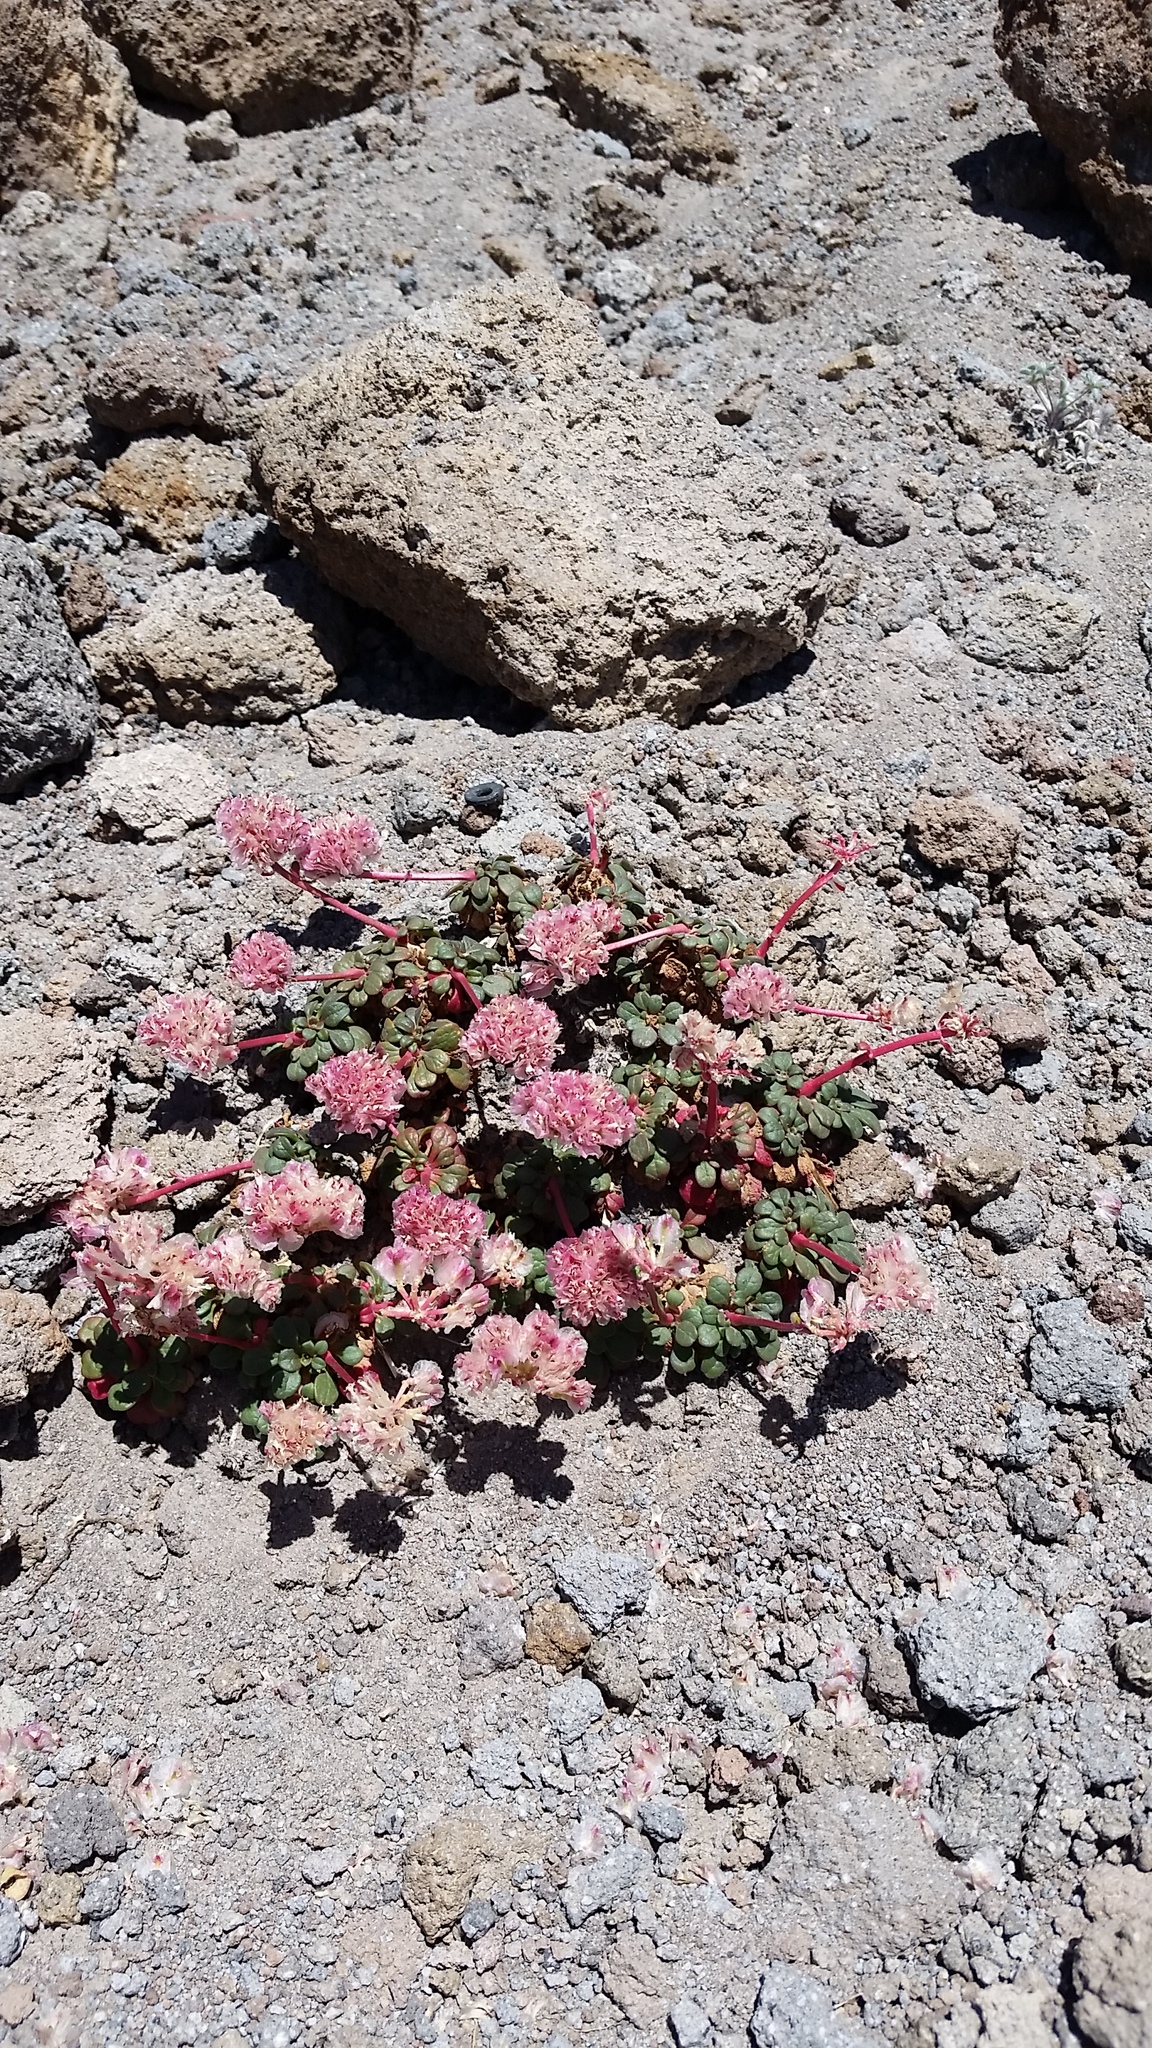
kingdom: Plantae
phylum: Tracheophyta
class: Magnoliopsida
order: Caryophyllales
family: Montiaceae
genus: Calyptridium
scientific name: Calyptridium umbellatum
